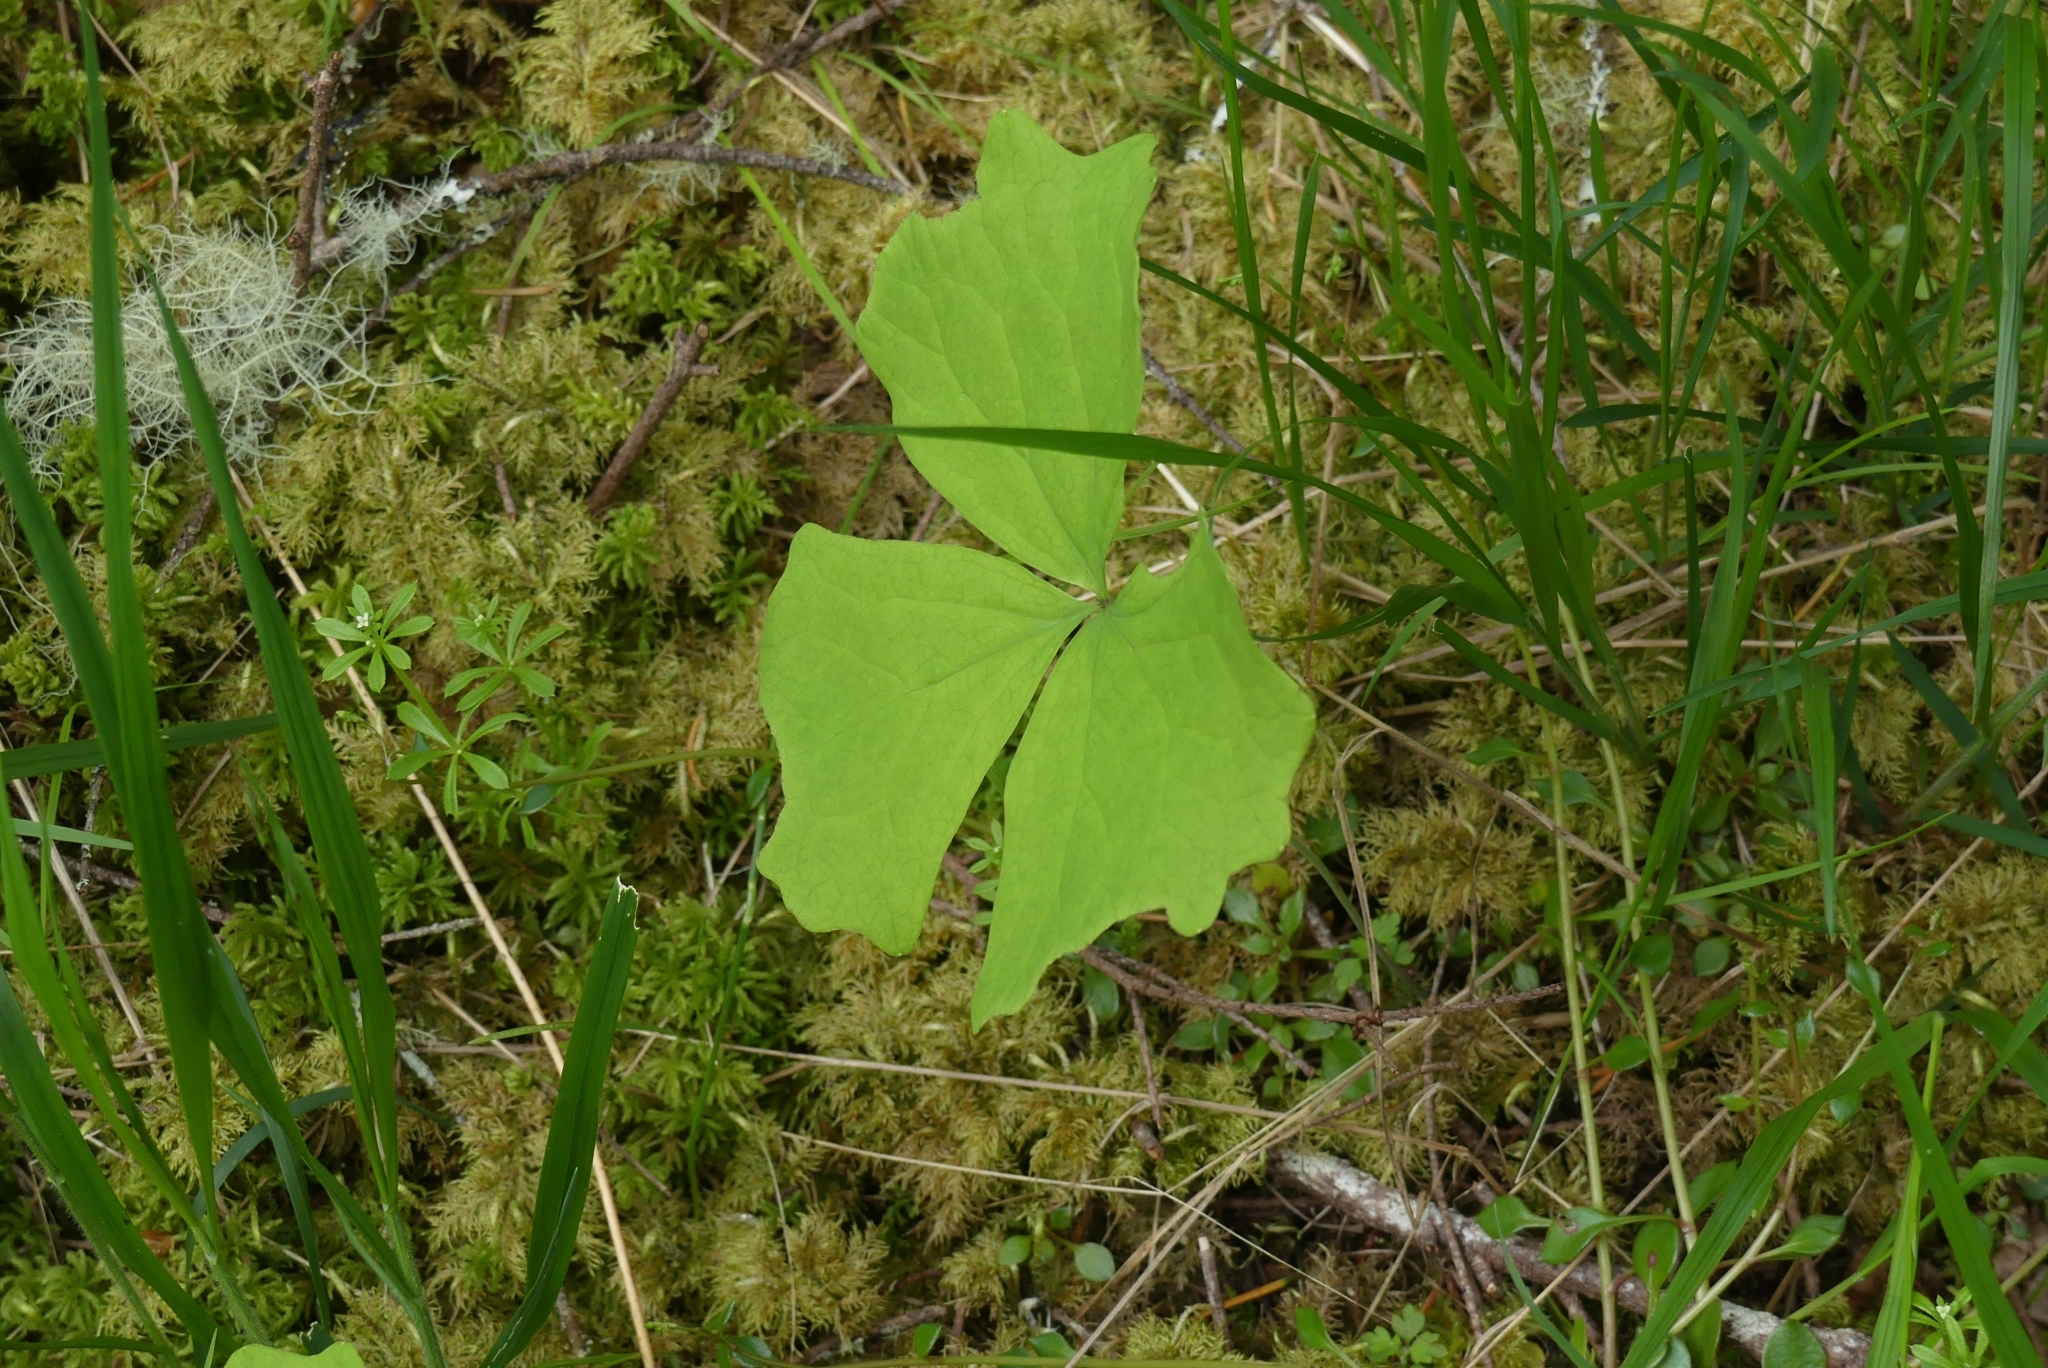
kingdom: Plantae
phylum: Tracheophyta
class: Magnoliopsida
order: Ranunculales
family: Berberidaceae
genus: Achlys
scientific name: Achlys triphylla
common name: Vanilla-leaf
